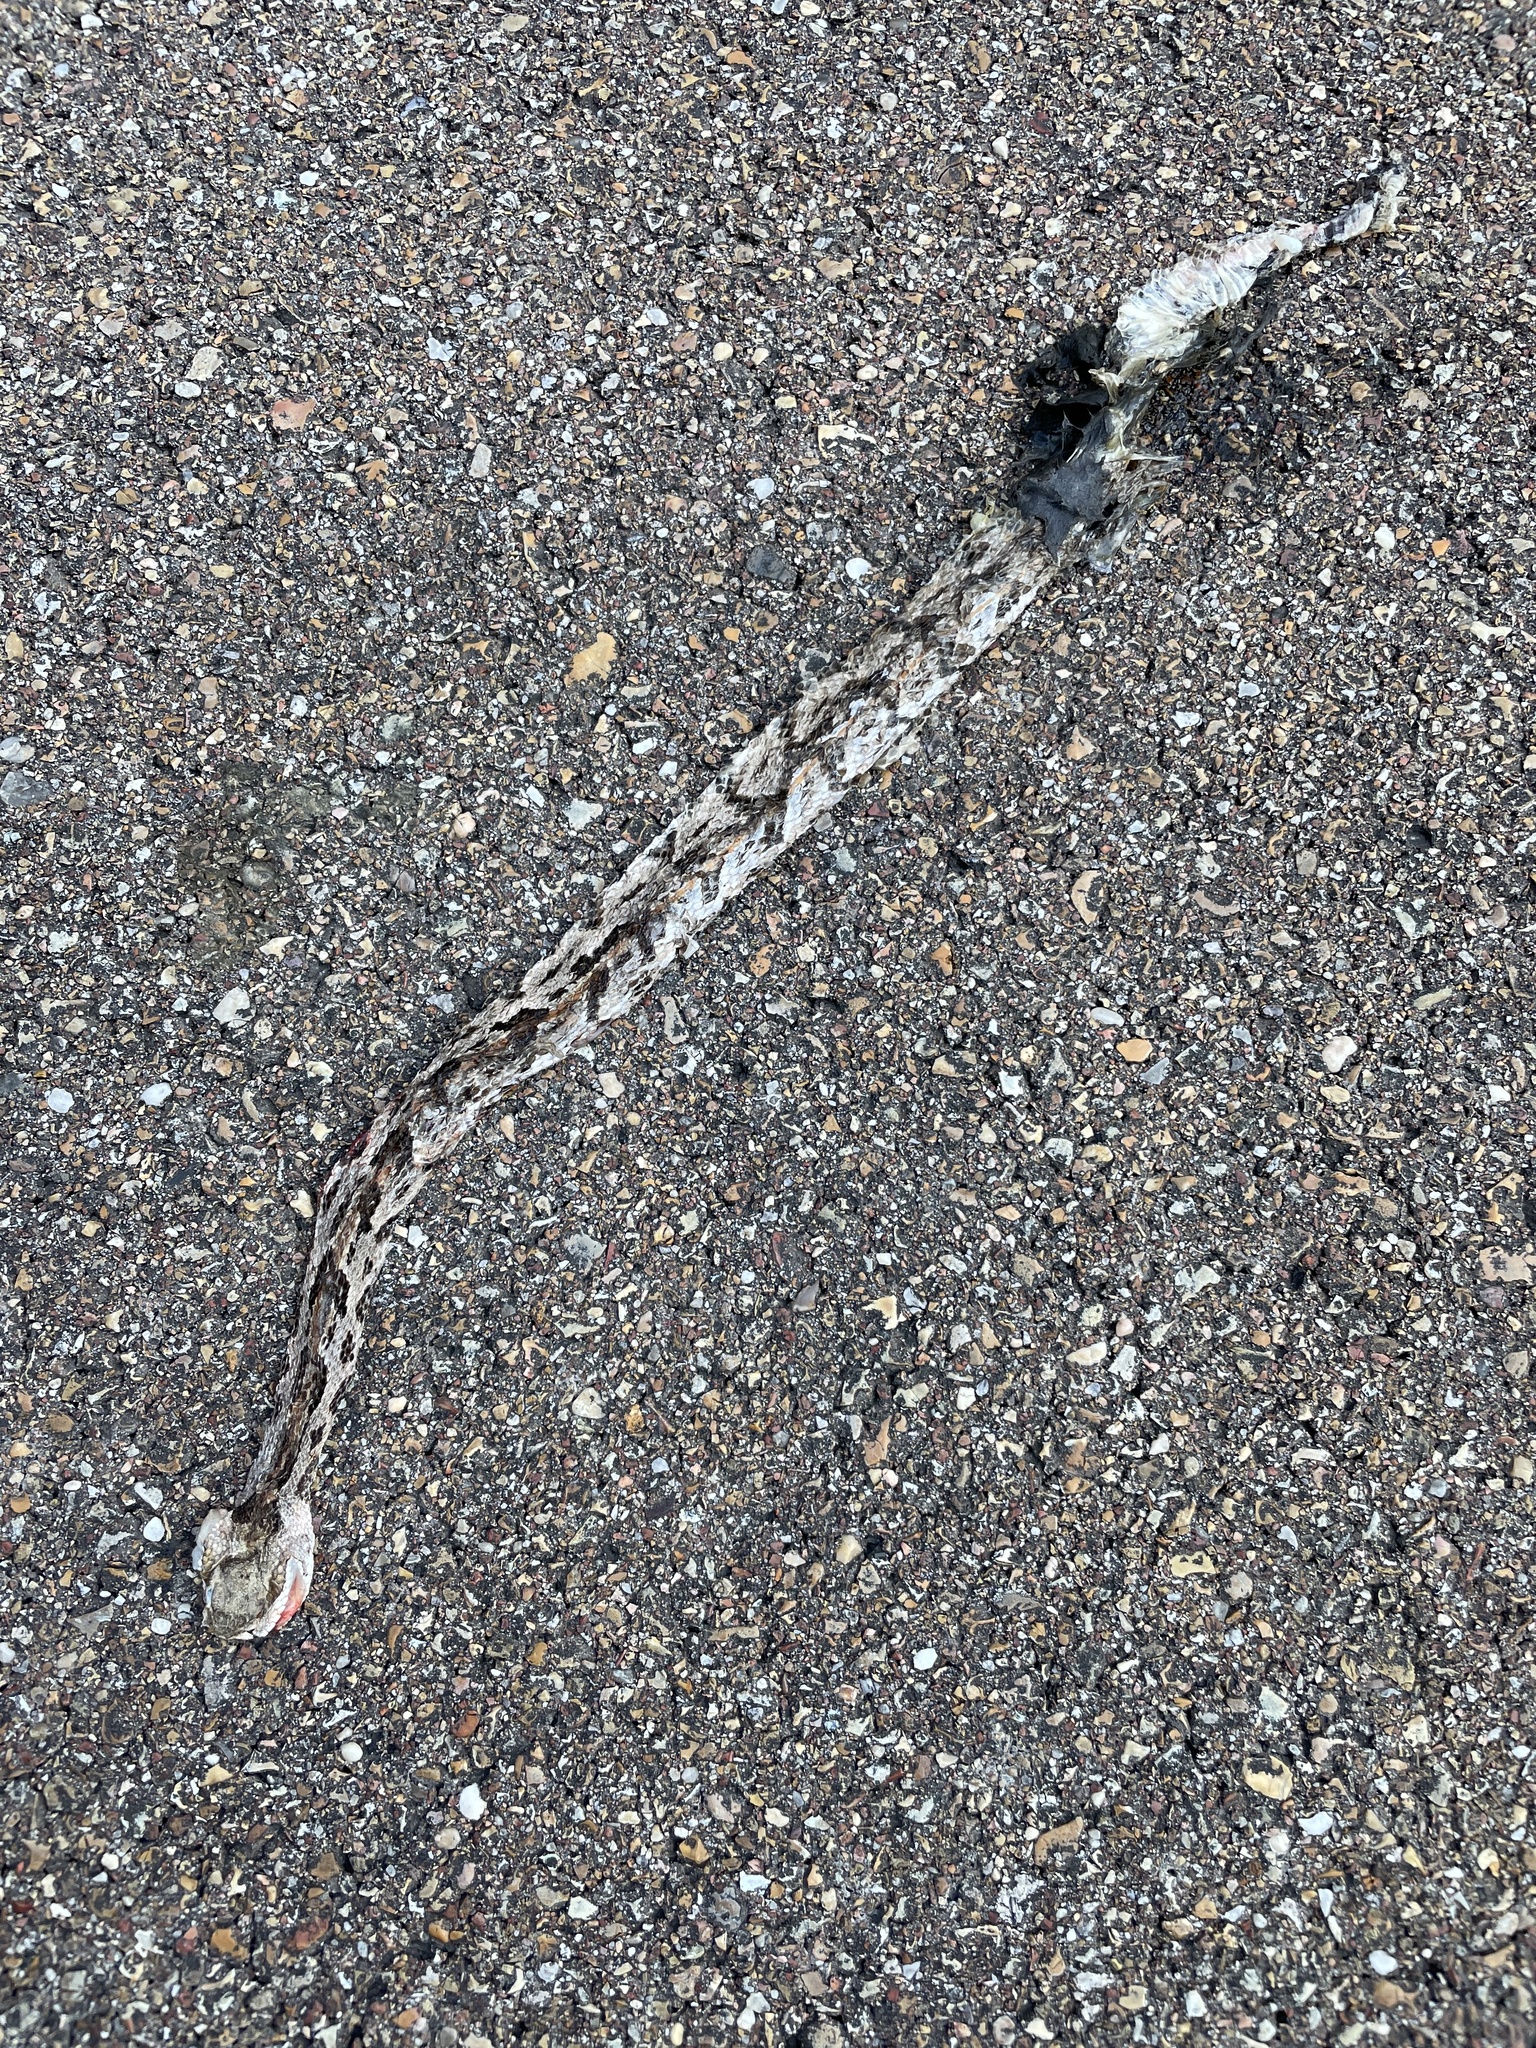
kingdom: Animalia
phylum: Chordata
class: Squamata
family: Viperidae
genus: Crotalus
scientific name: Crotalus horridus
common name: Timber rattlesnake
